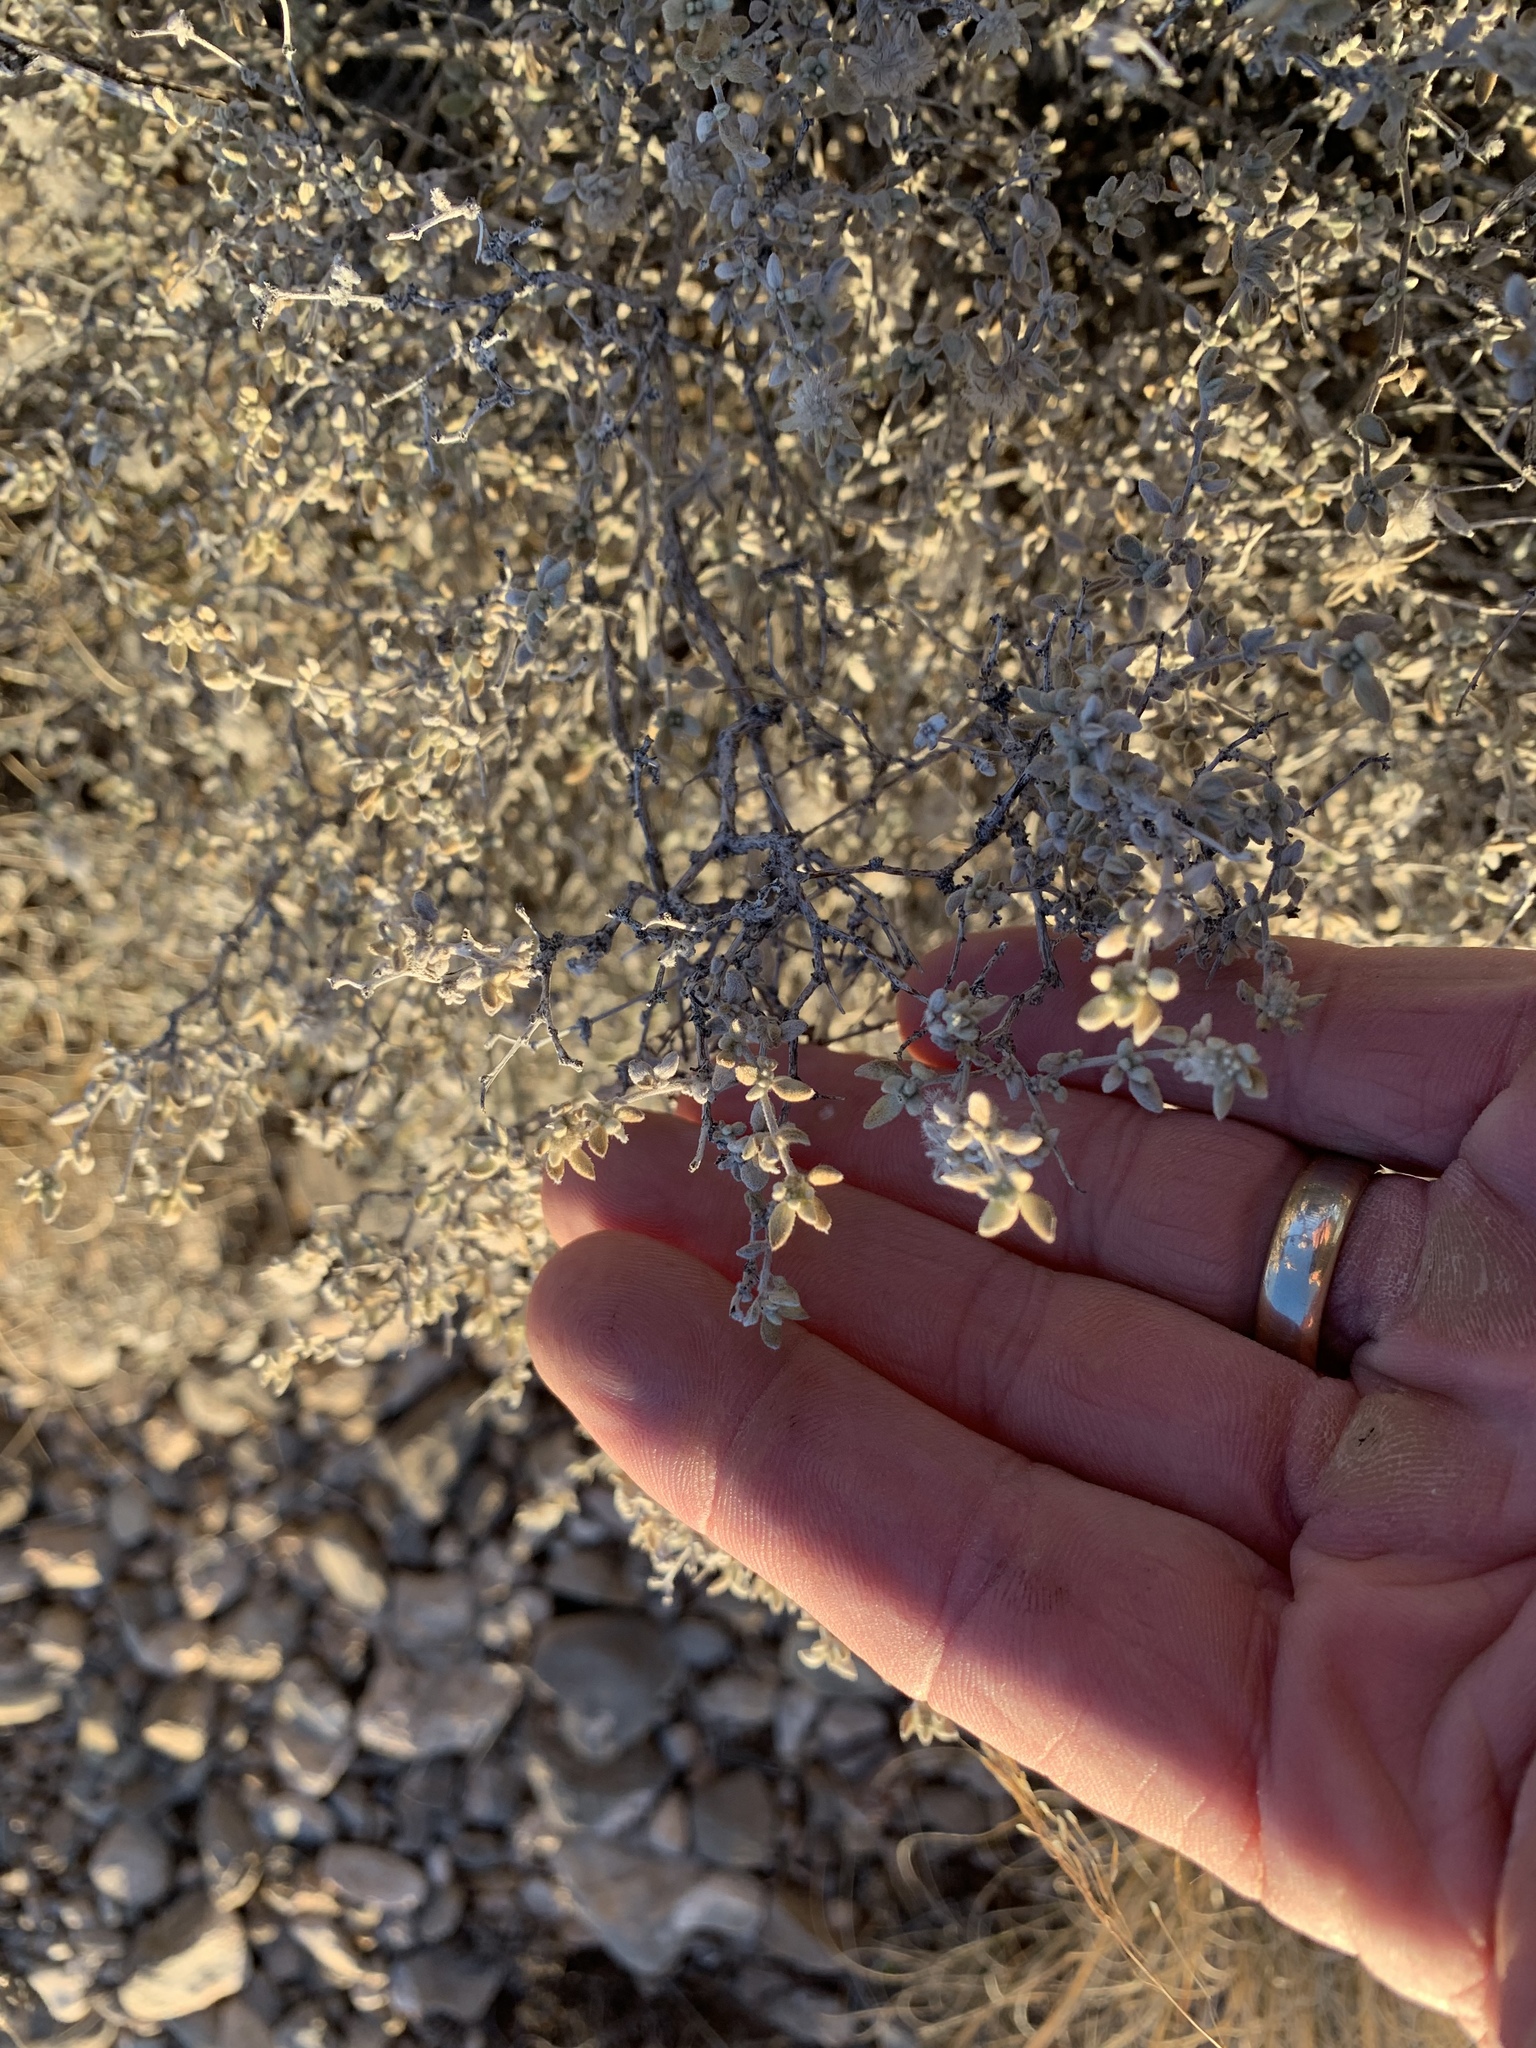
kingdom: Plantae
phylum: Tracheophyta
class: Magnoliopsida
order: Boraginales
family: Ehretiaceae
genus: Tiquilia
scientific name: Tiquilia greggii
